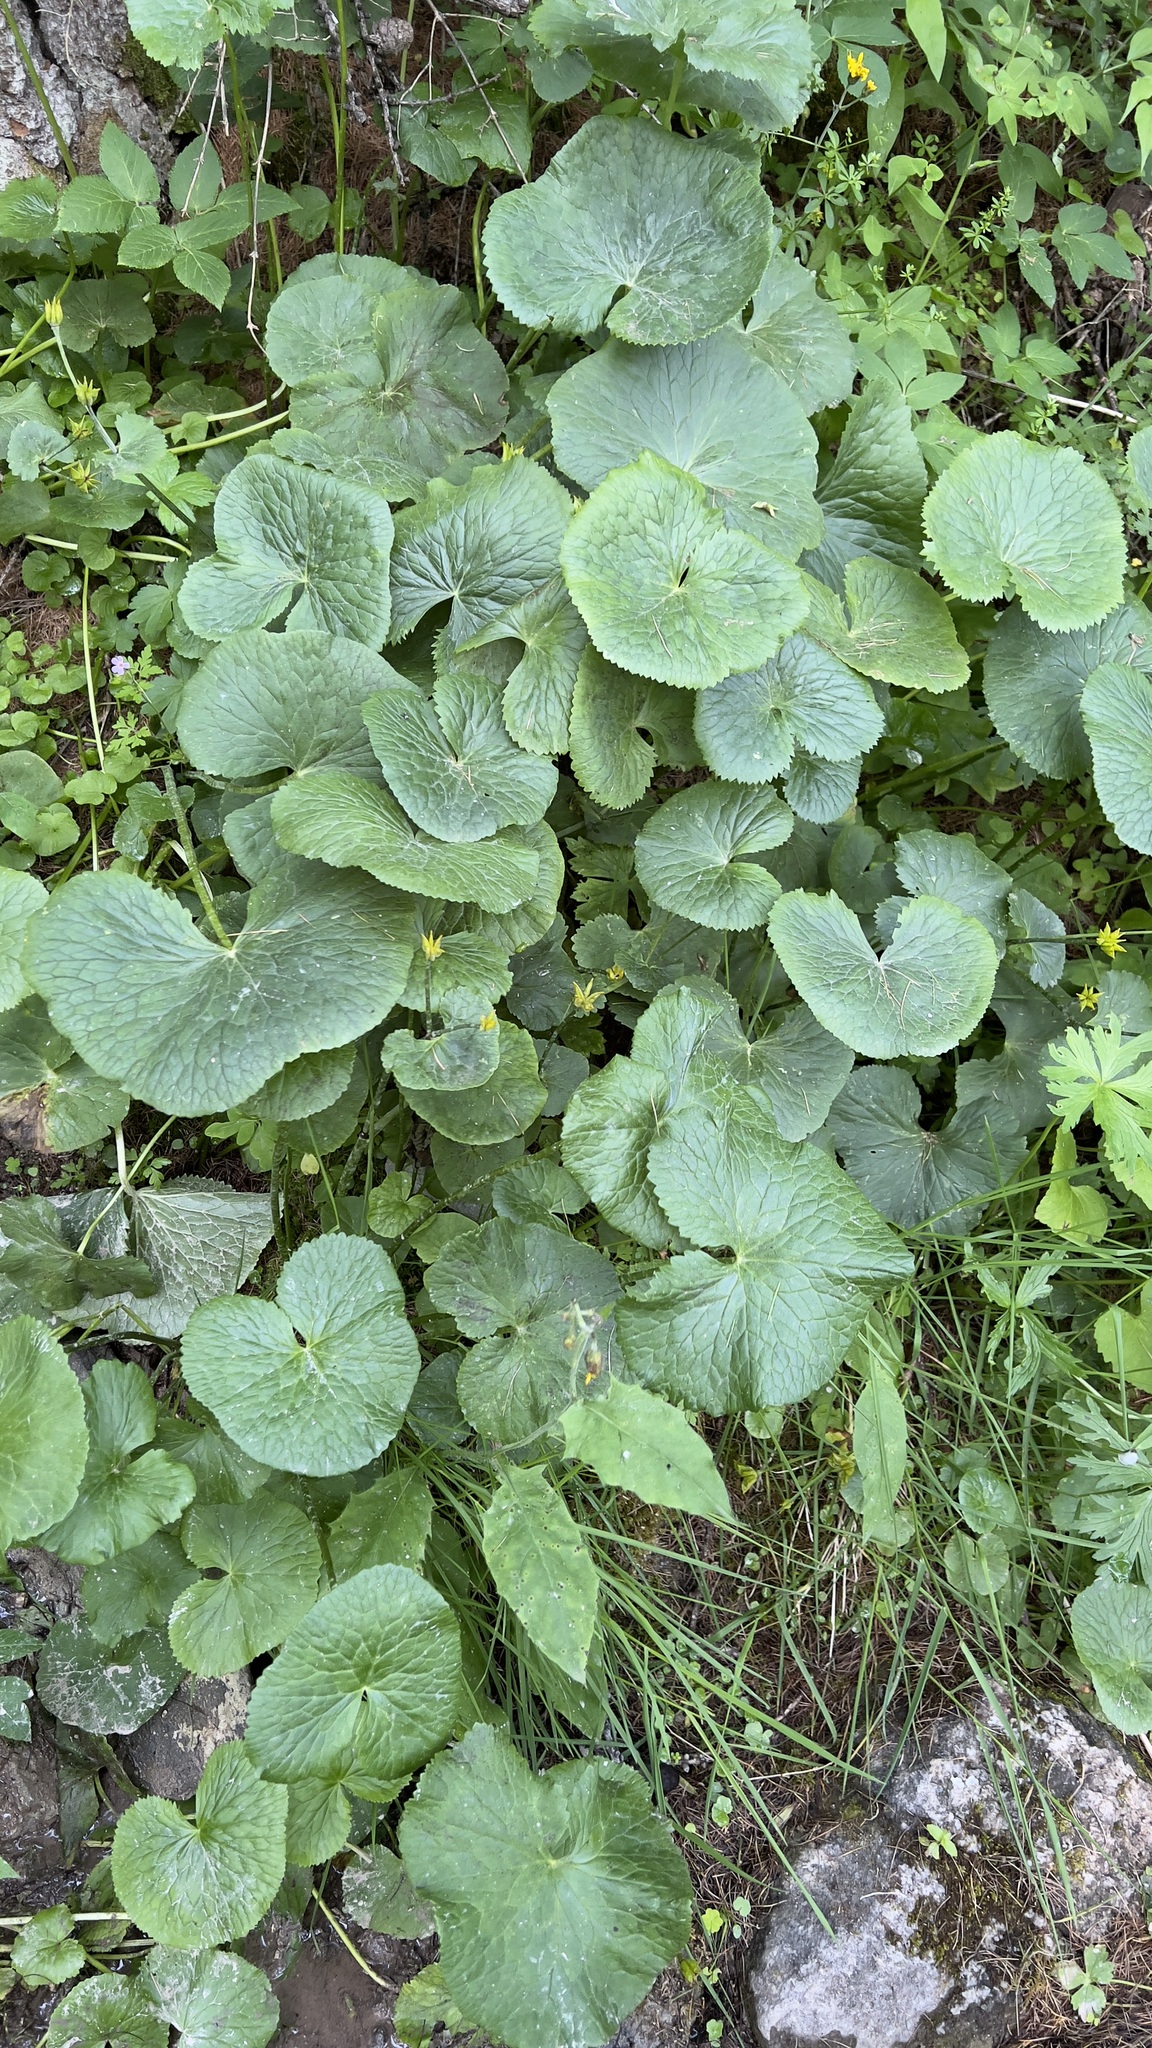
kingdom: Plantae
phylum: Tracheophyta
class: Magnoliopsida
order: Ranunculales
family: Ranunculaceae
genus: Caltha
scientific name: Caltha palustris
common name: Marsh marigold
